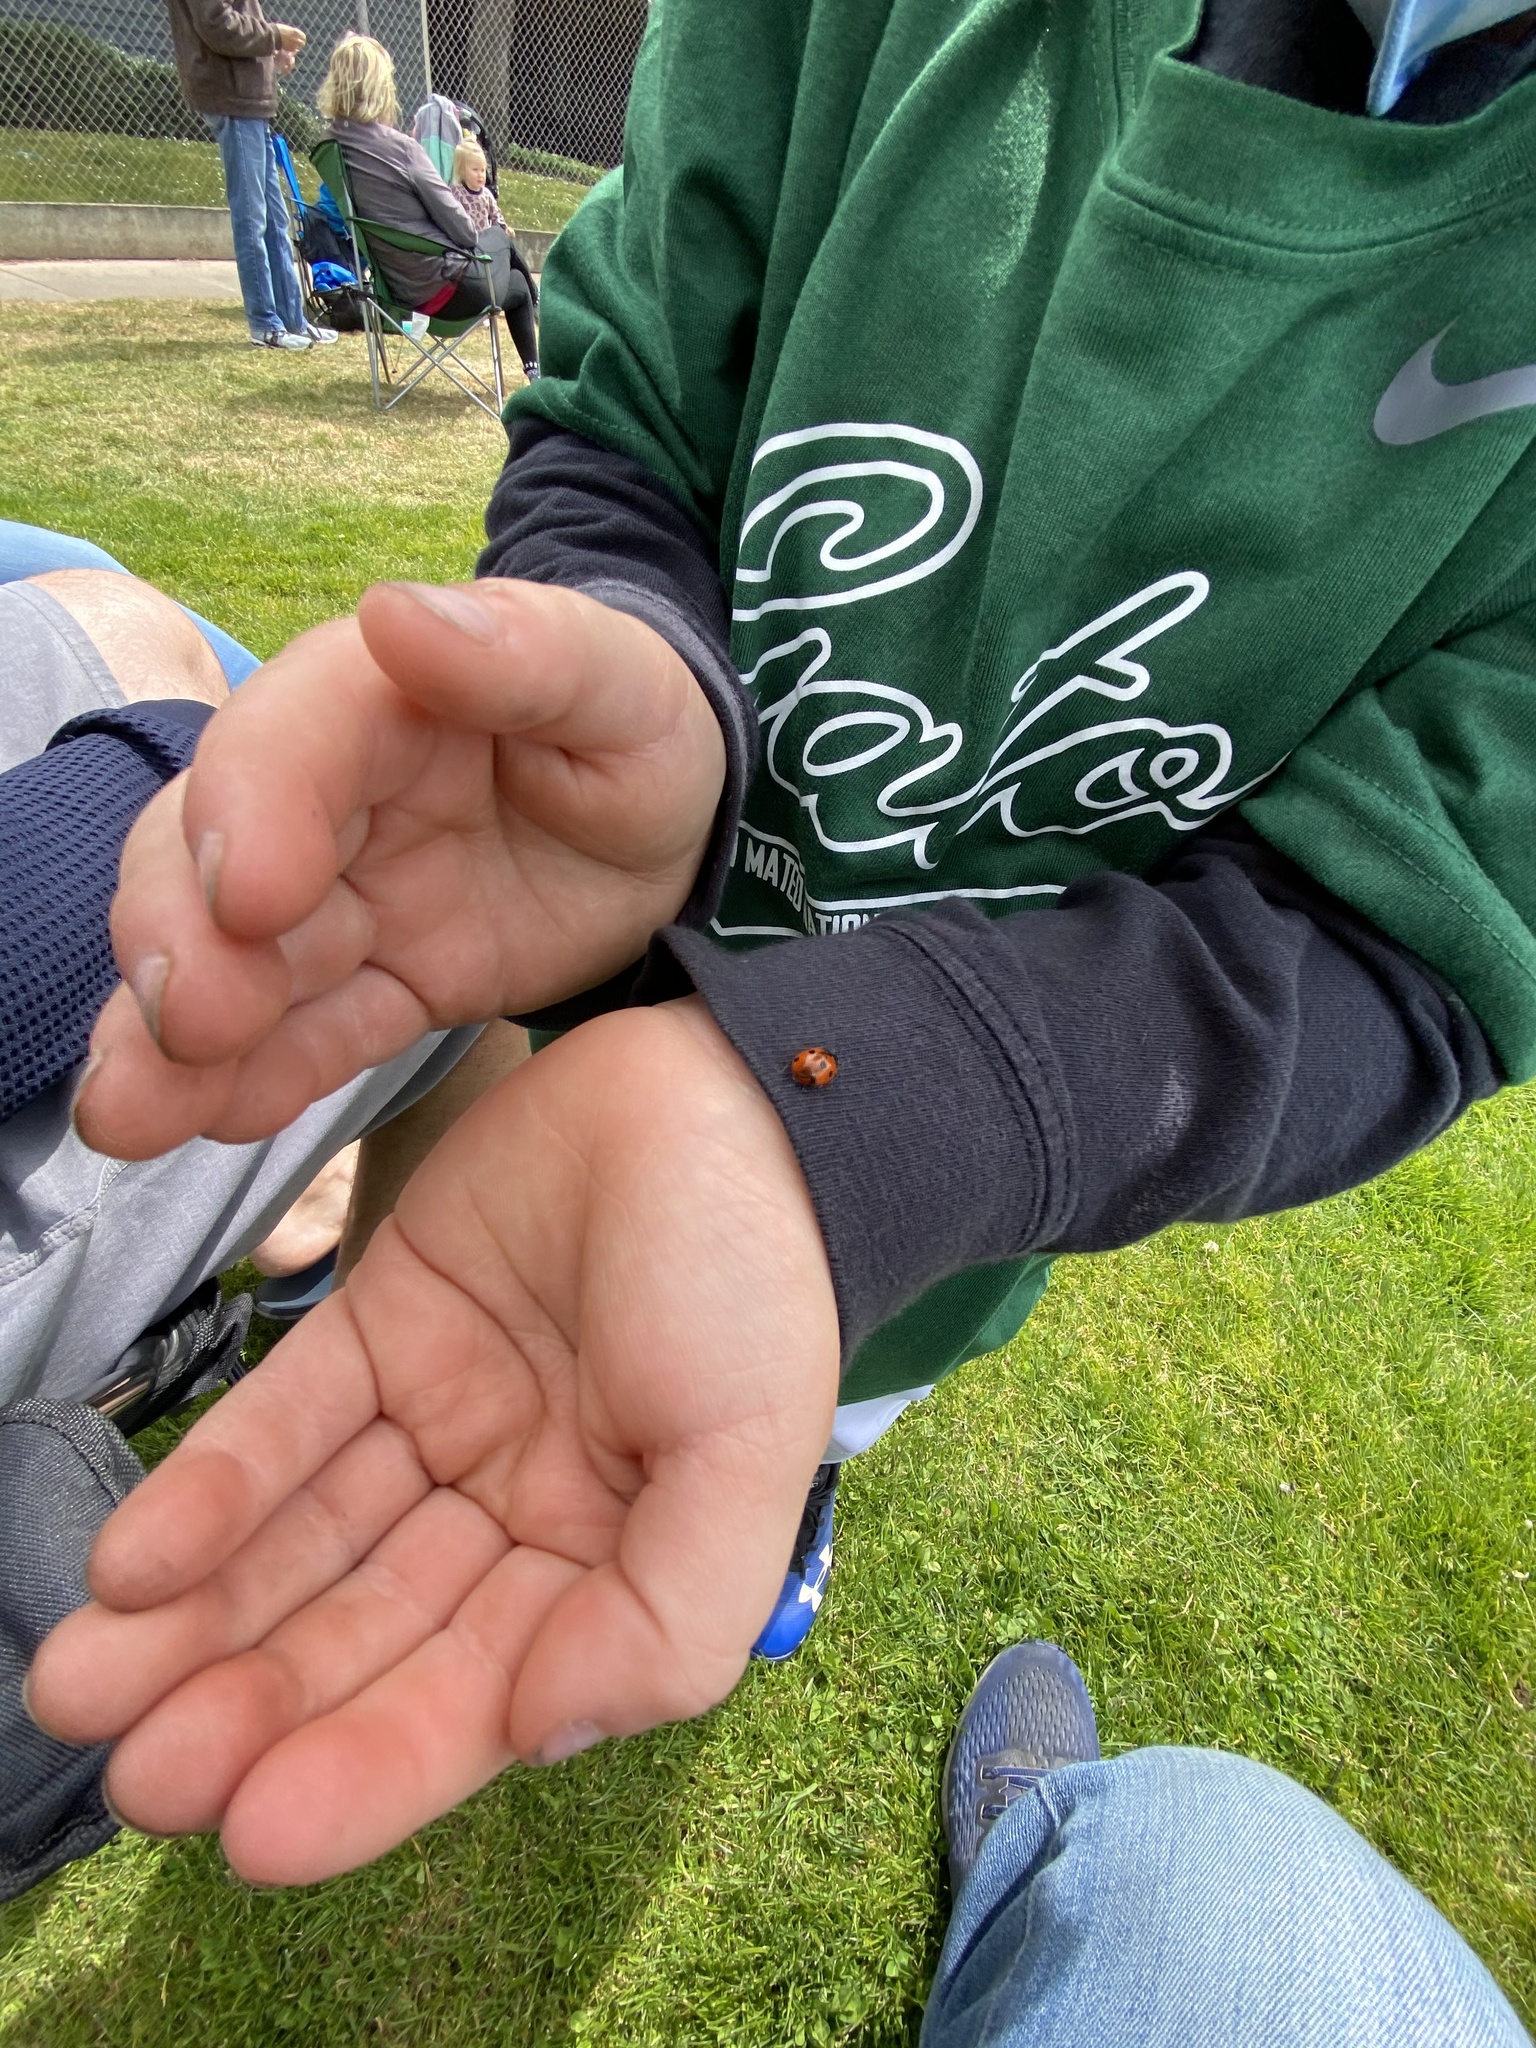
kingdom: Animalia
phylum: Arthropoda
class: Insecta
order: Coleoptera
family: Coccinellidae
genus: Coccinella
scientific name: Coccinella septempunctata
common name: Sevenspotted lady beetle
